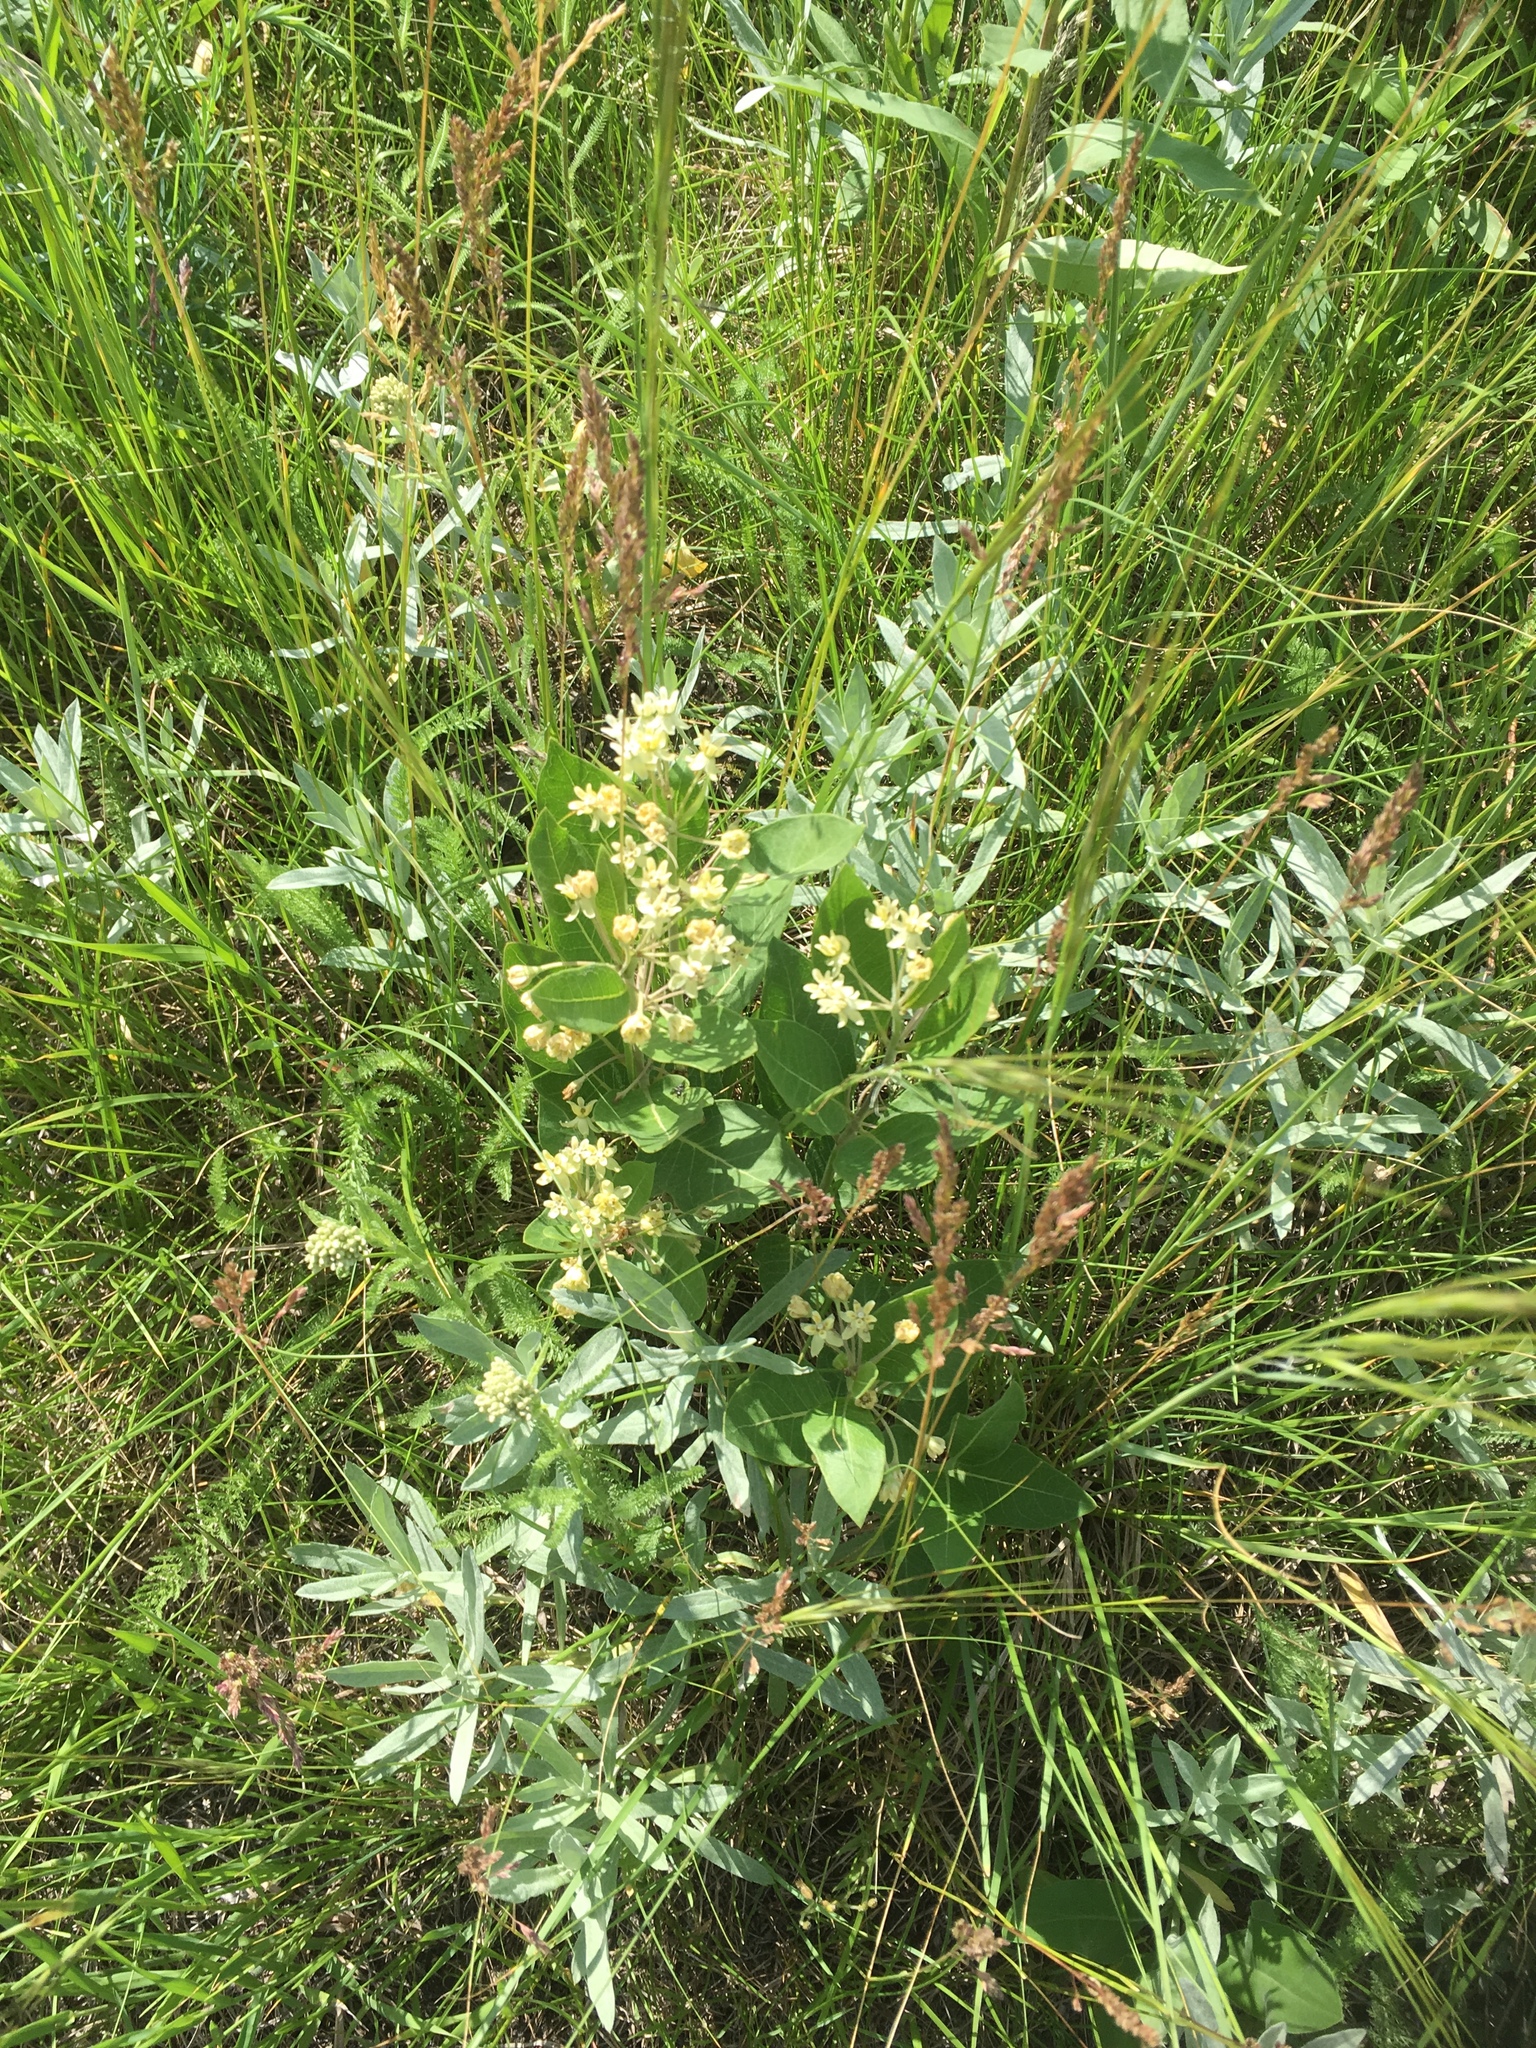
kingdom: Plantae
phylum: Tracheophyta
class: Magnoliopsida
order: Gentianales
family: Apocynaceae
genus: Asclepias
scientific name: Asclepias ovalifolia
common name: Dwarf milkweed
